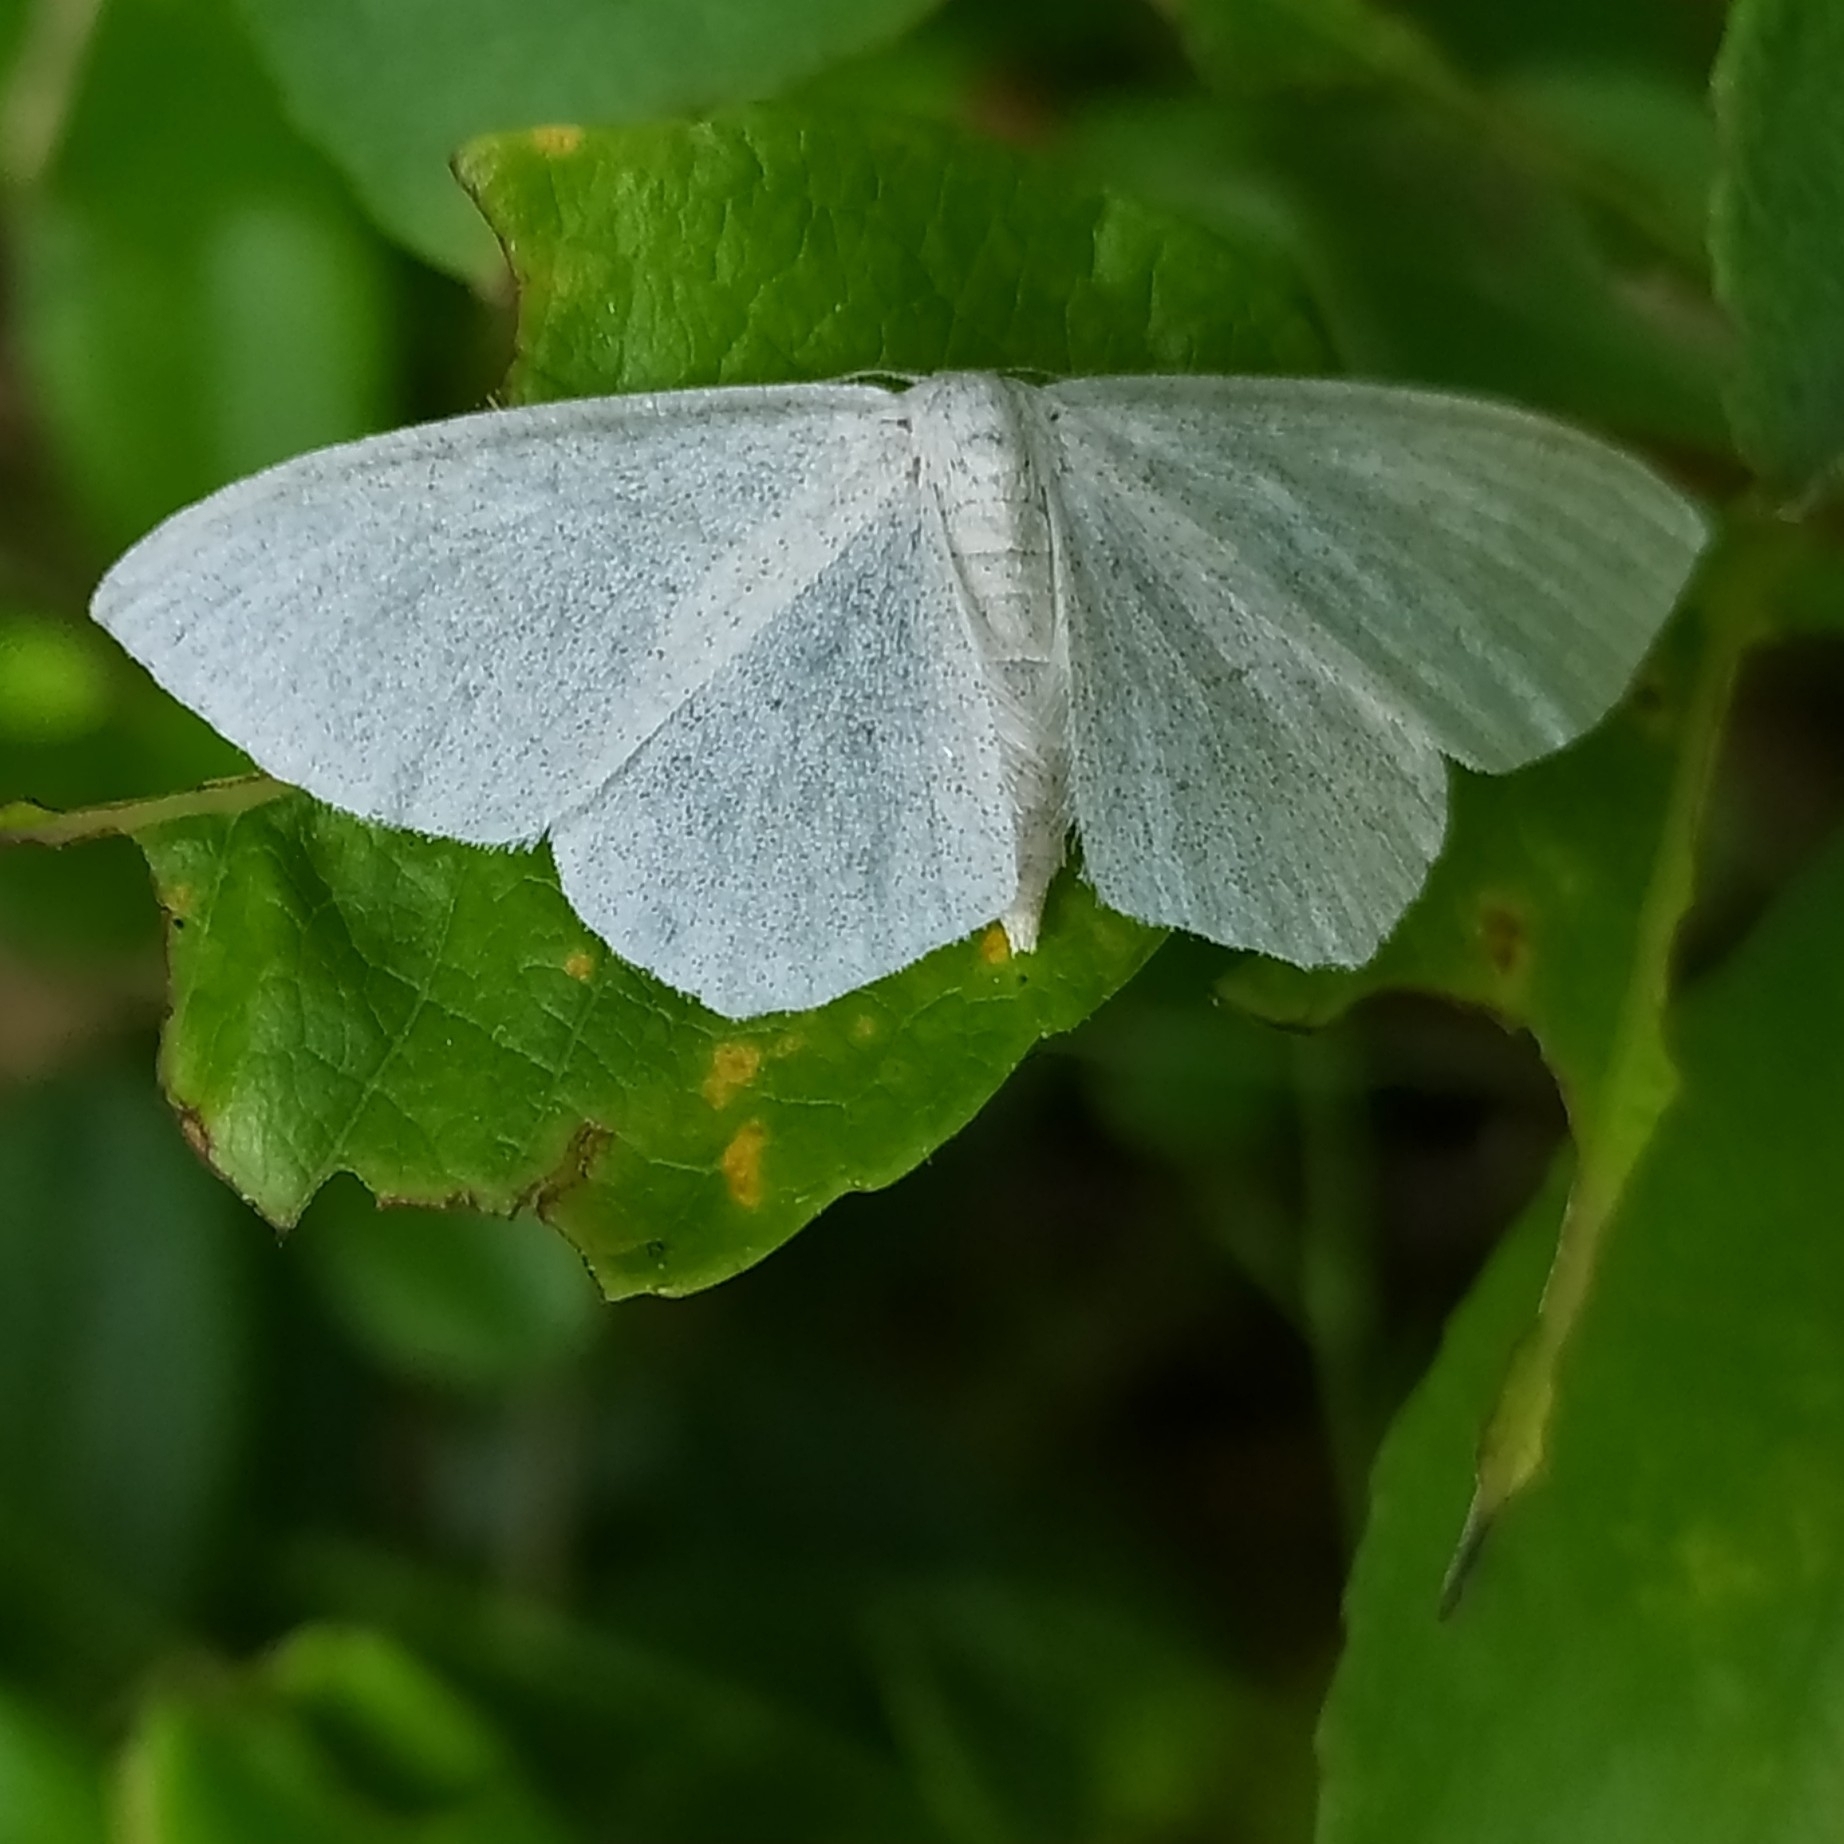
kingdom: Animalia
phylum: Arthropoda
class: Insecta
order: Lepidoptera
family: Geometridae
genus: Scopula
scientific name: Scopula floslactata
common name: Cream wave
